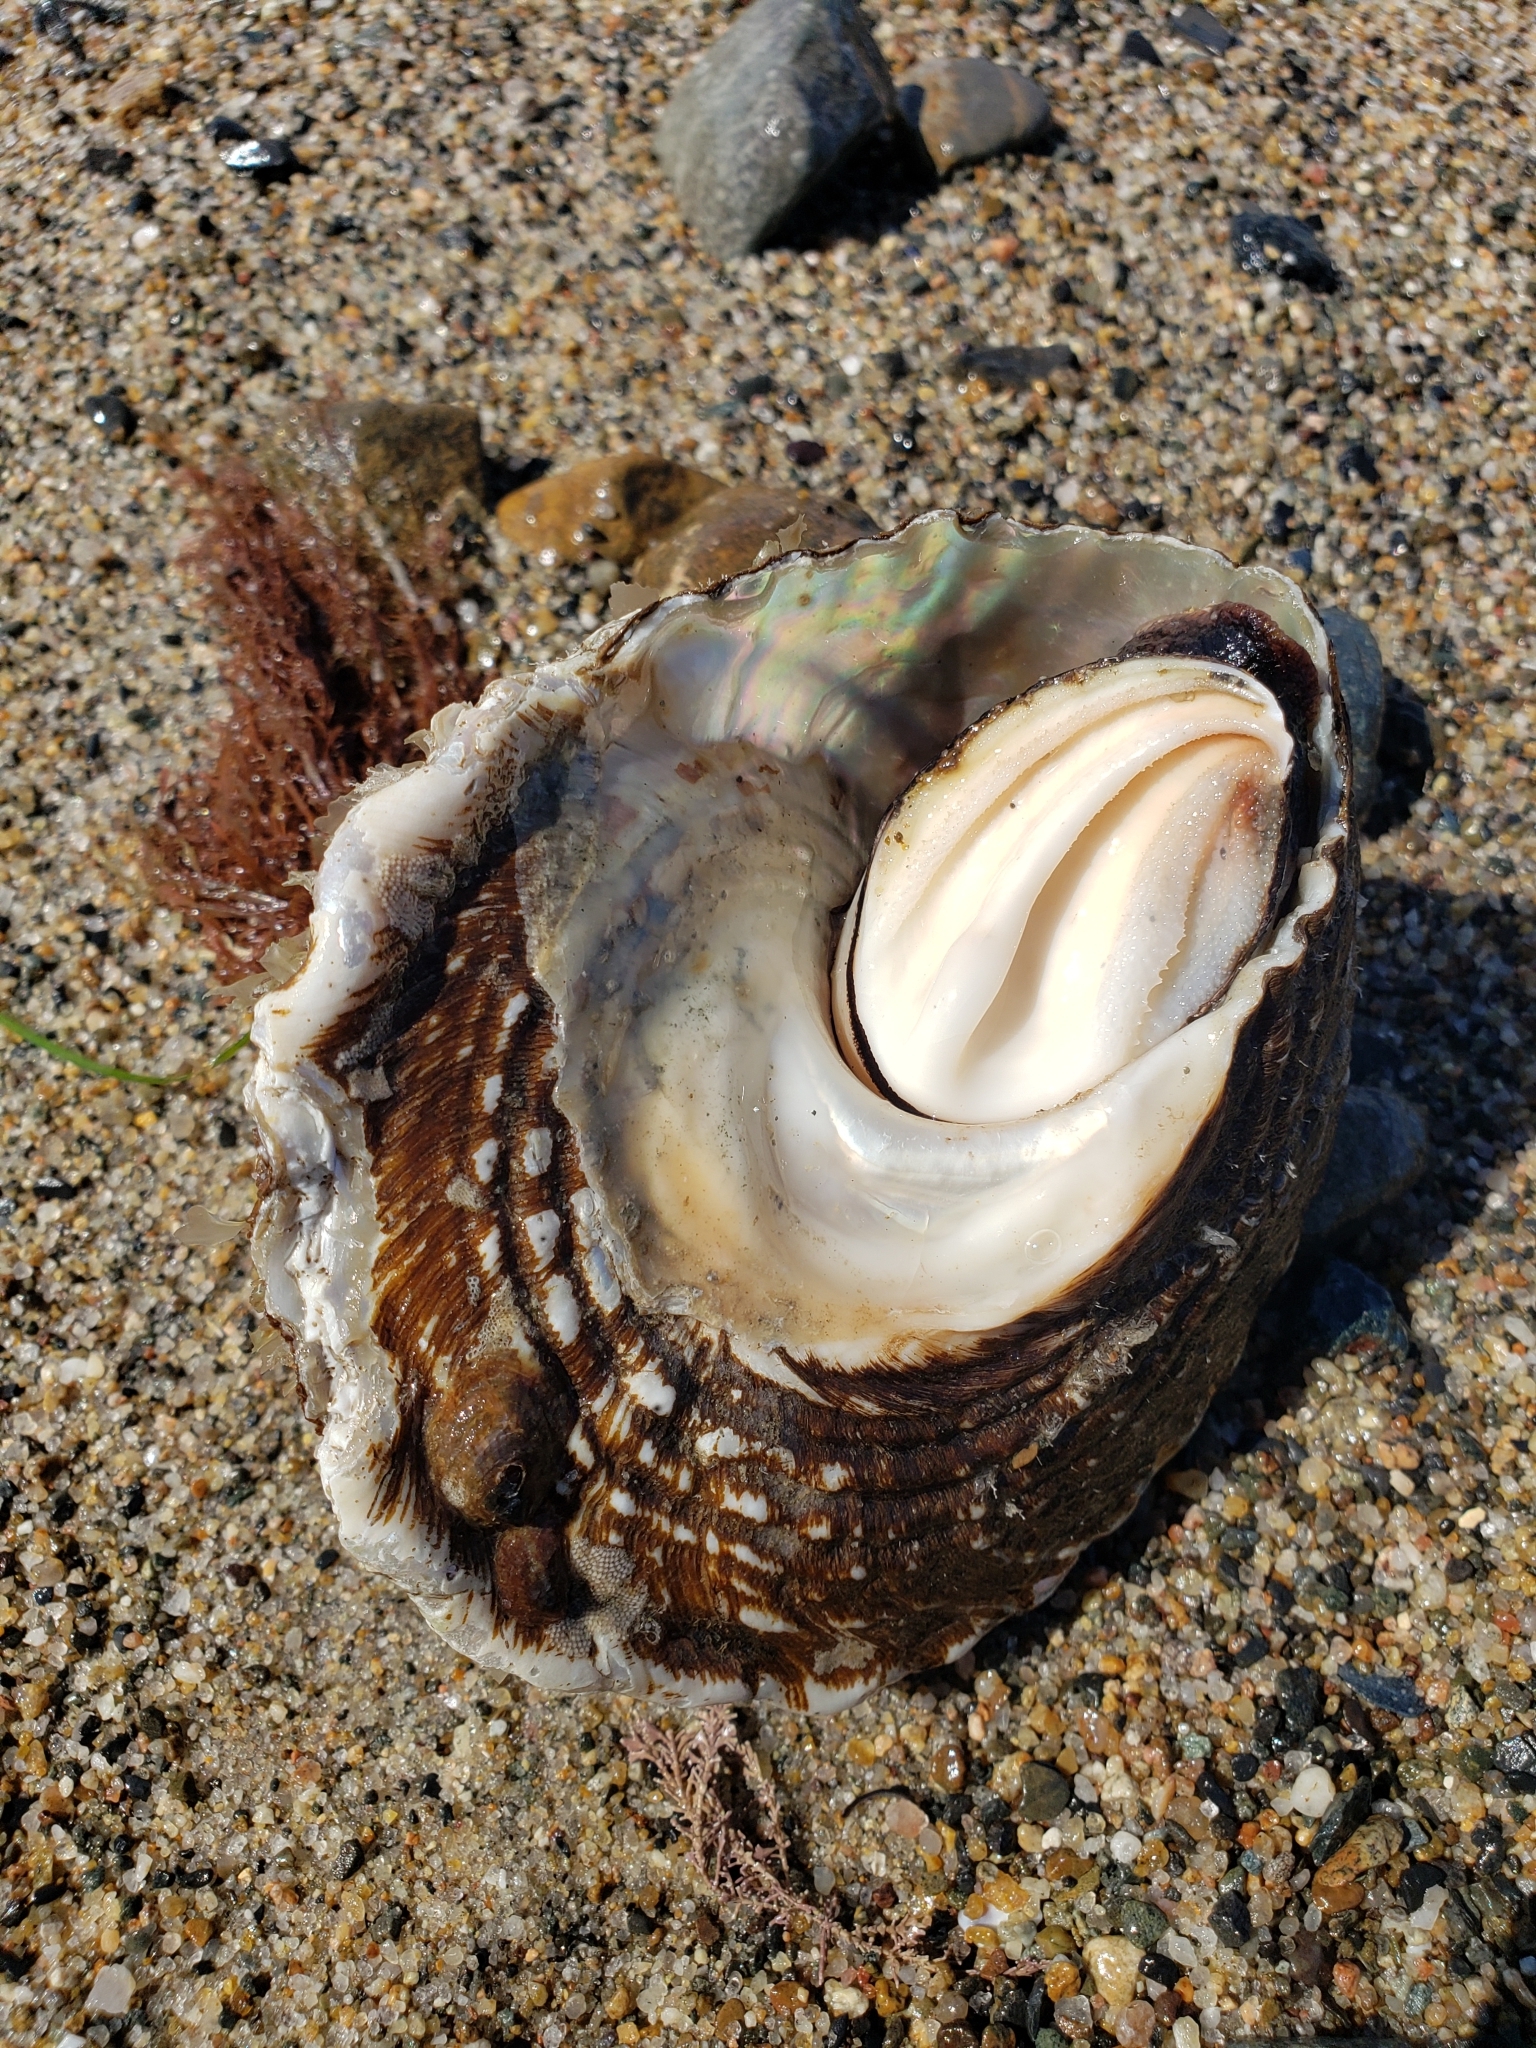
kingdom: Animalia
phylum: Mollusca
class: Gastropoda
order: Trochida
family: Turbinidae
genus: Megastraea
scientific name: Megastraea undosa
